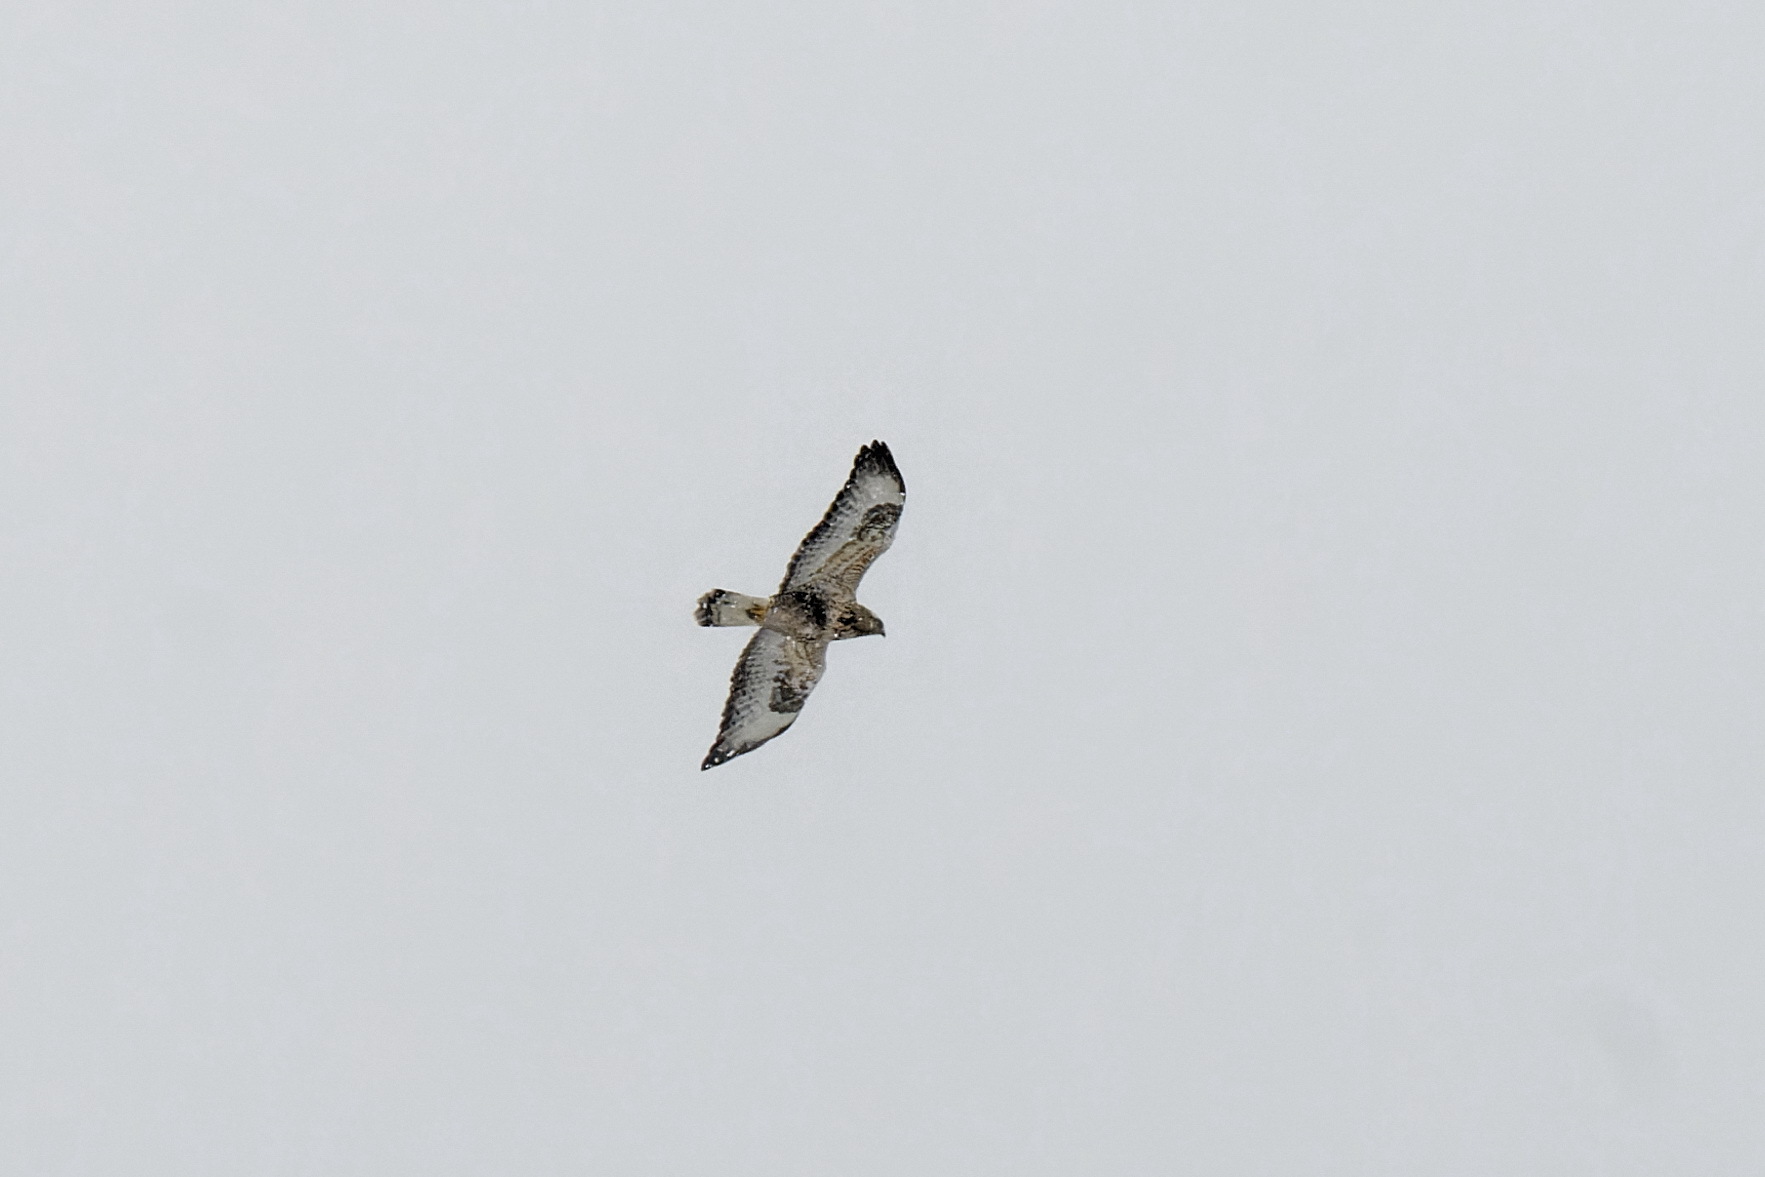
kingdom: Animalia
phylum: Chordata
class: Aves
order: Accipitriformes
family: Accipitridae
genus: Buteo
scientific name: Buteo lagopus
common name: Rough-legged buzzard
